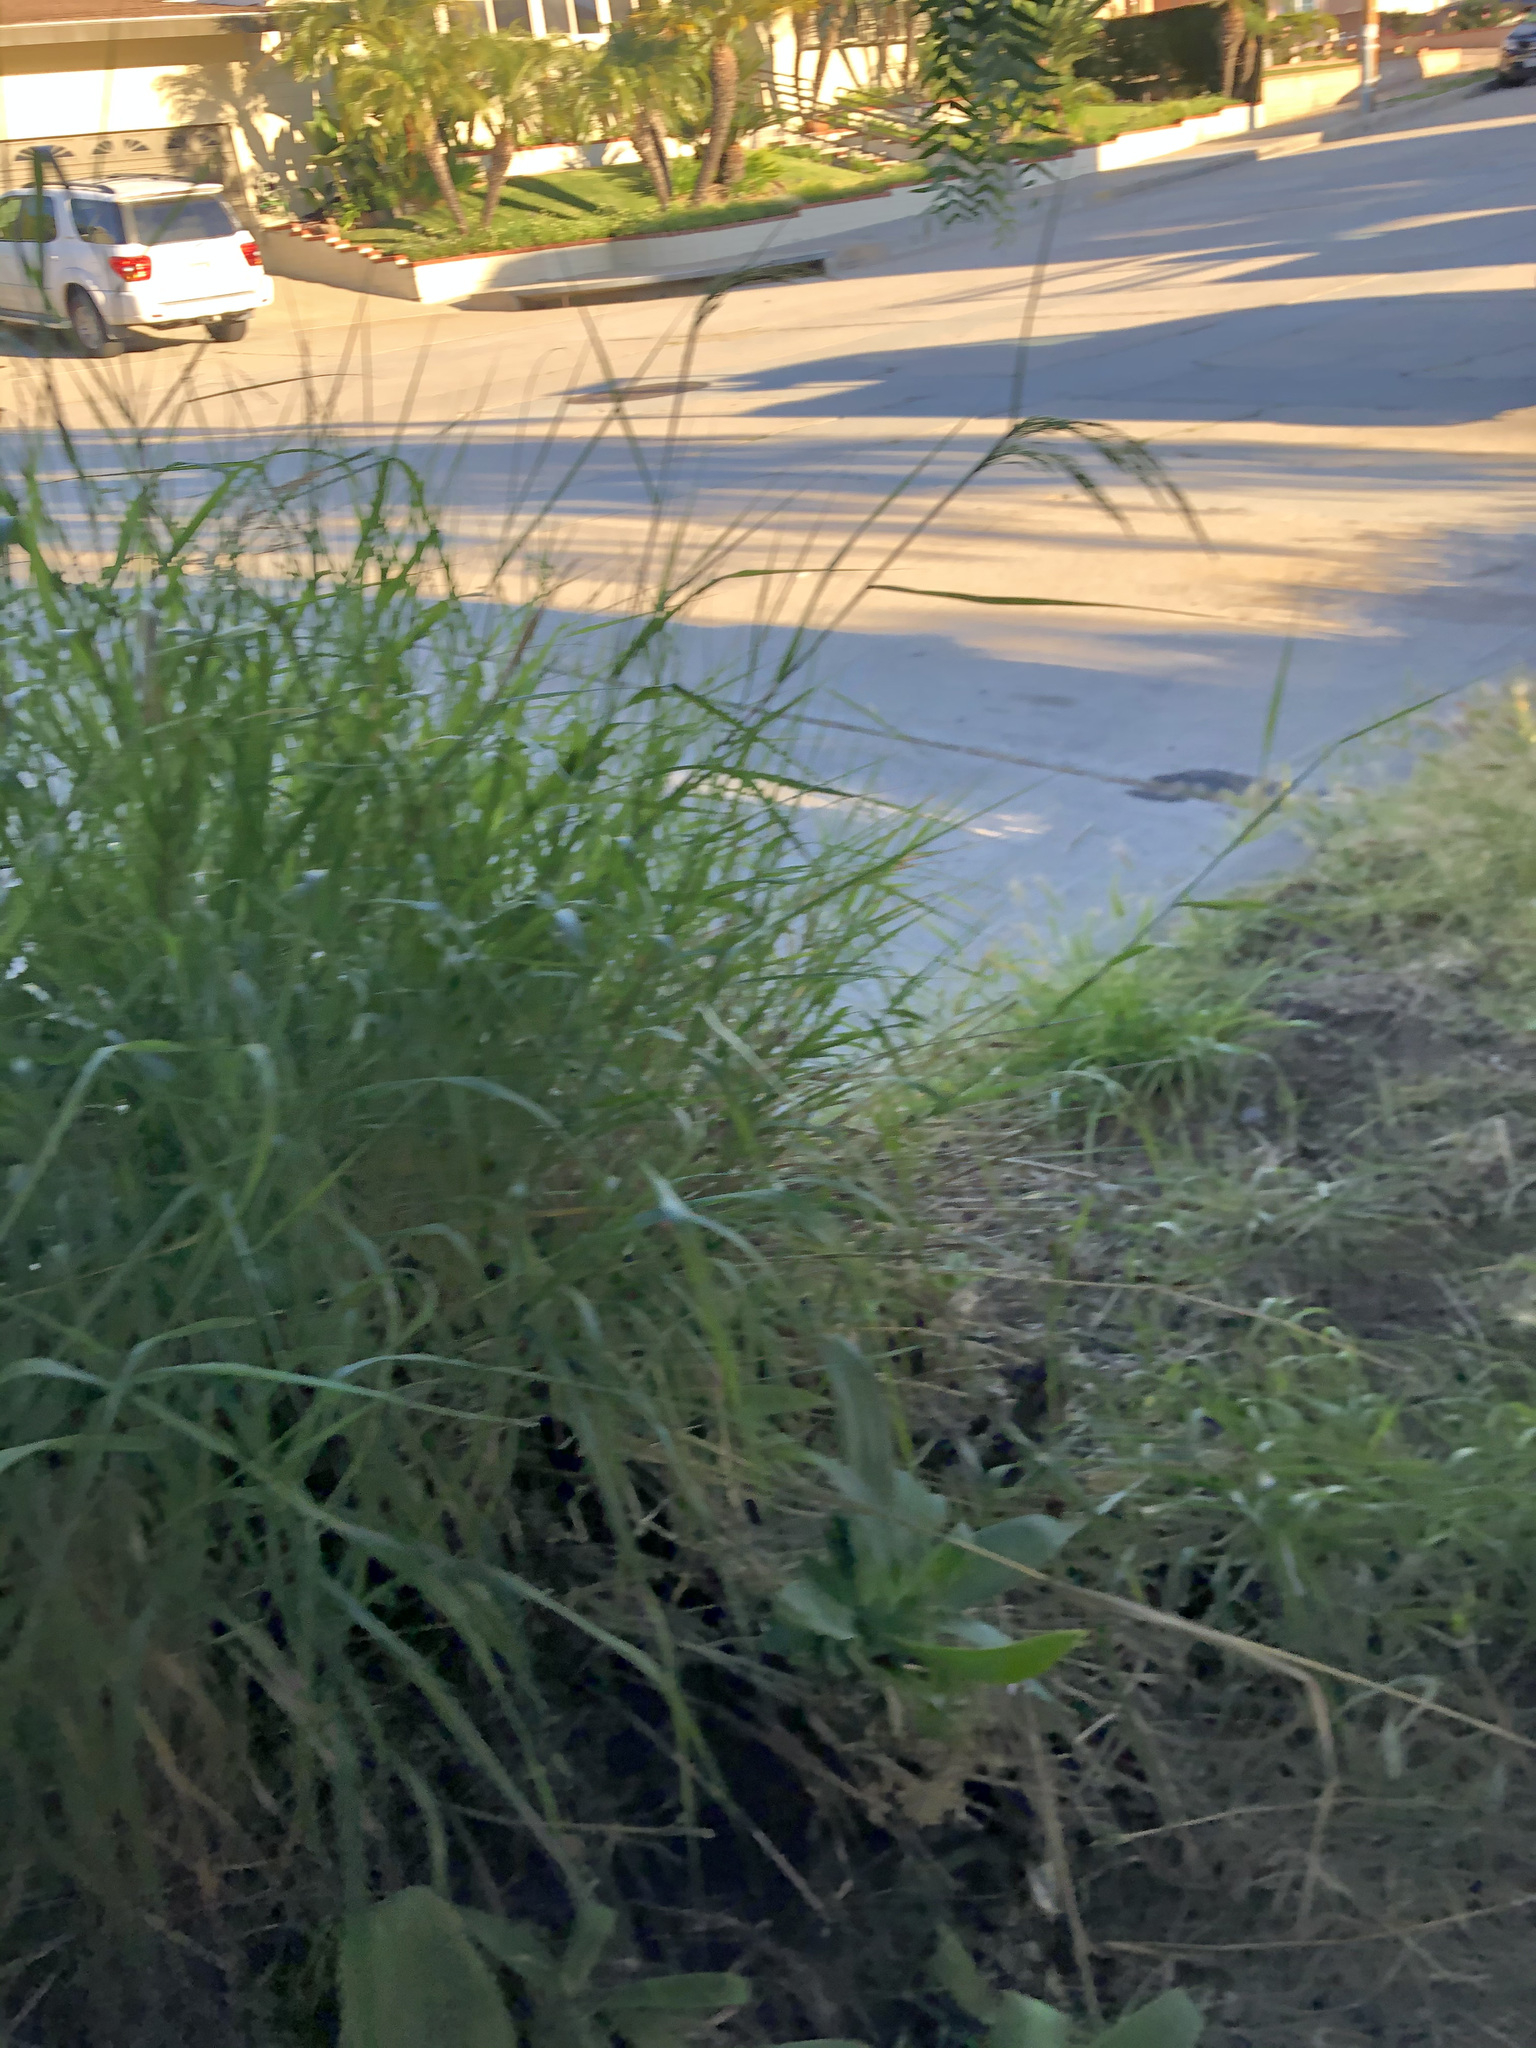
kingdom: Plantae
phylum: Tracheophyta
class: Liliopsida
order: Poales
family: Poaceae
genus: Oloptum
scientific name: Oloptum miliaceum
